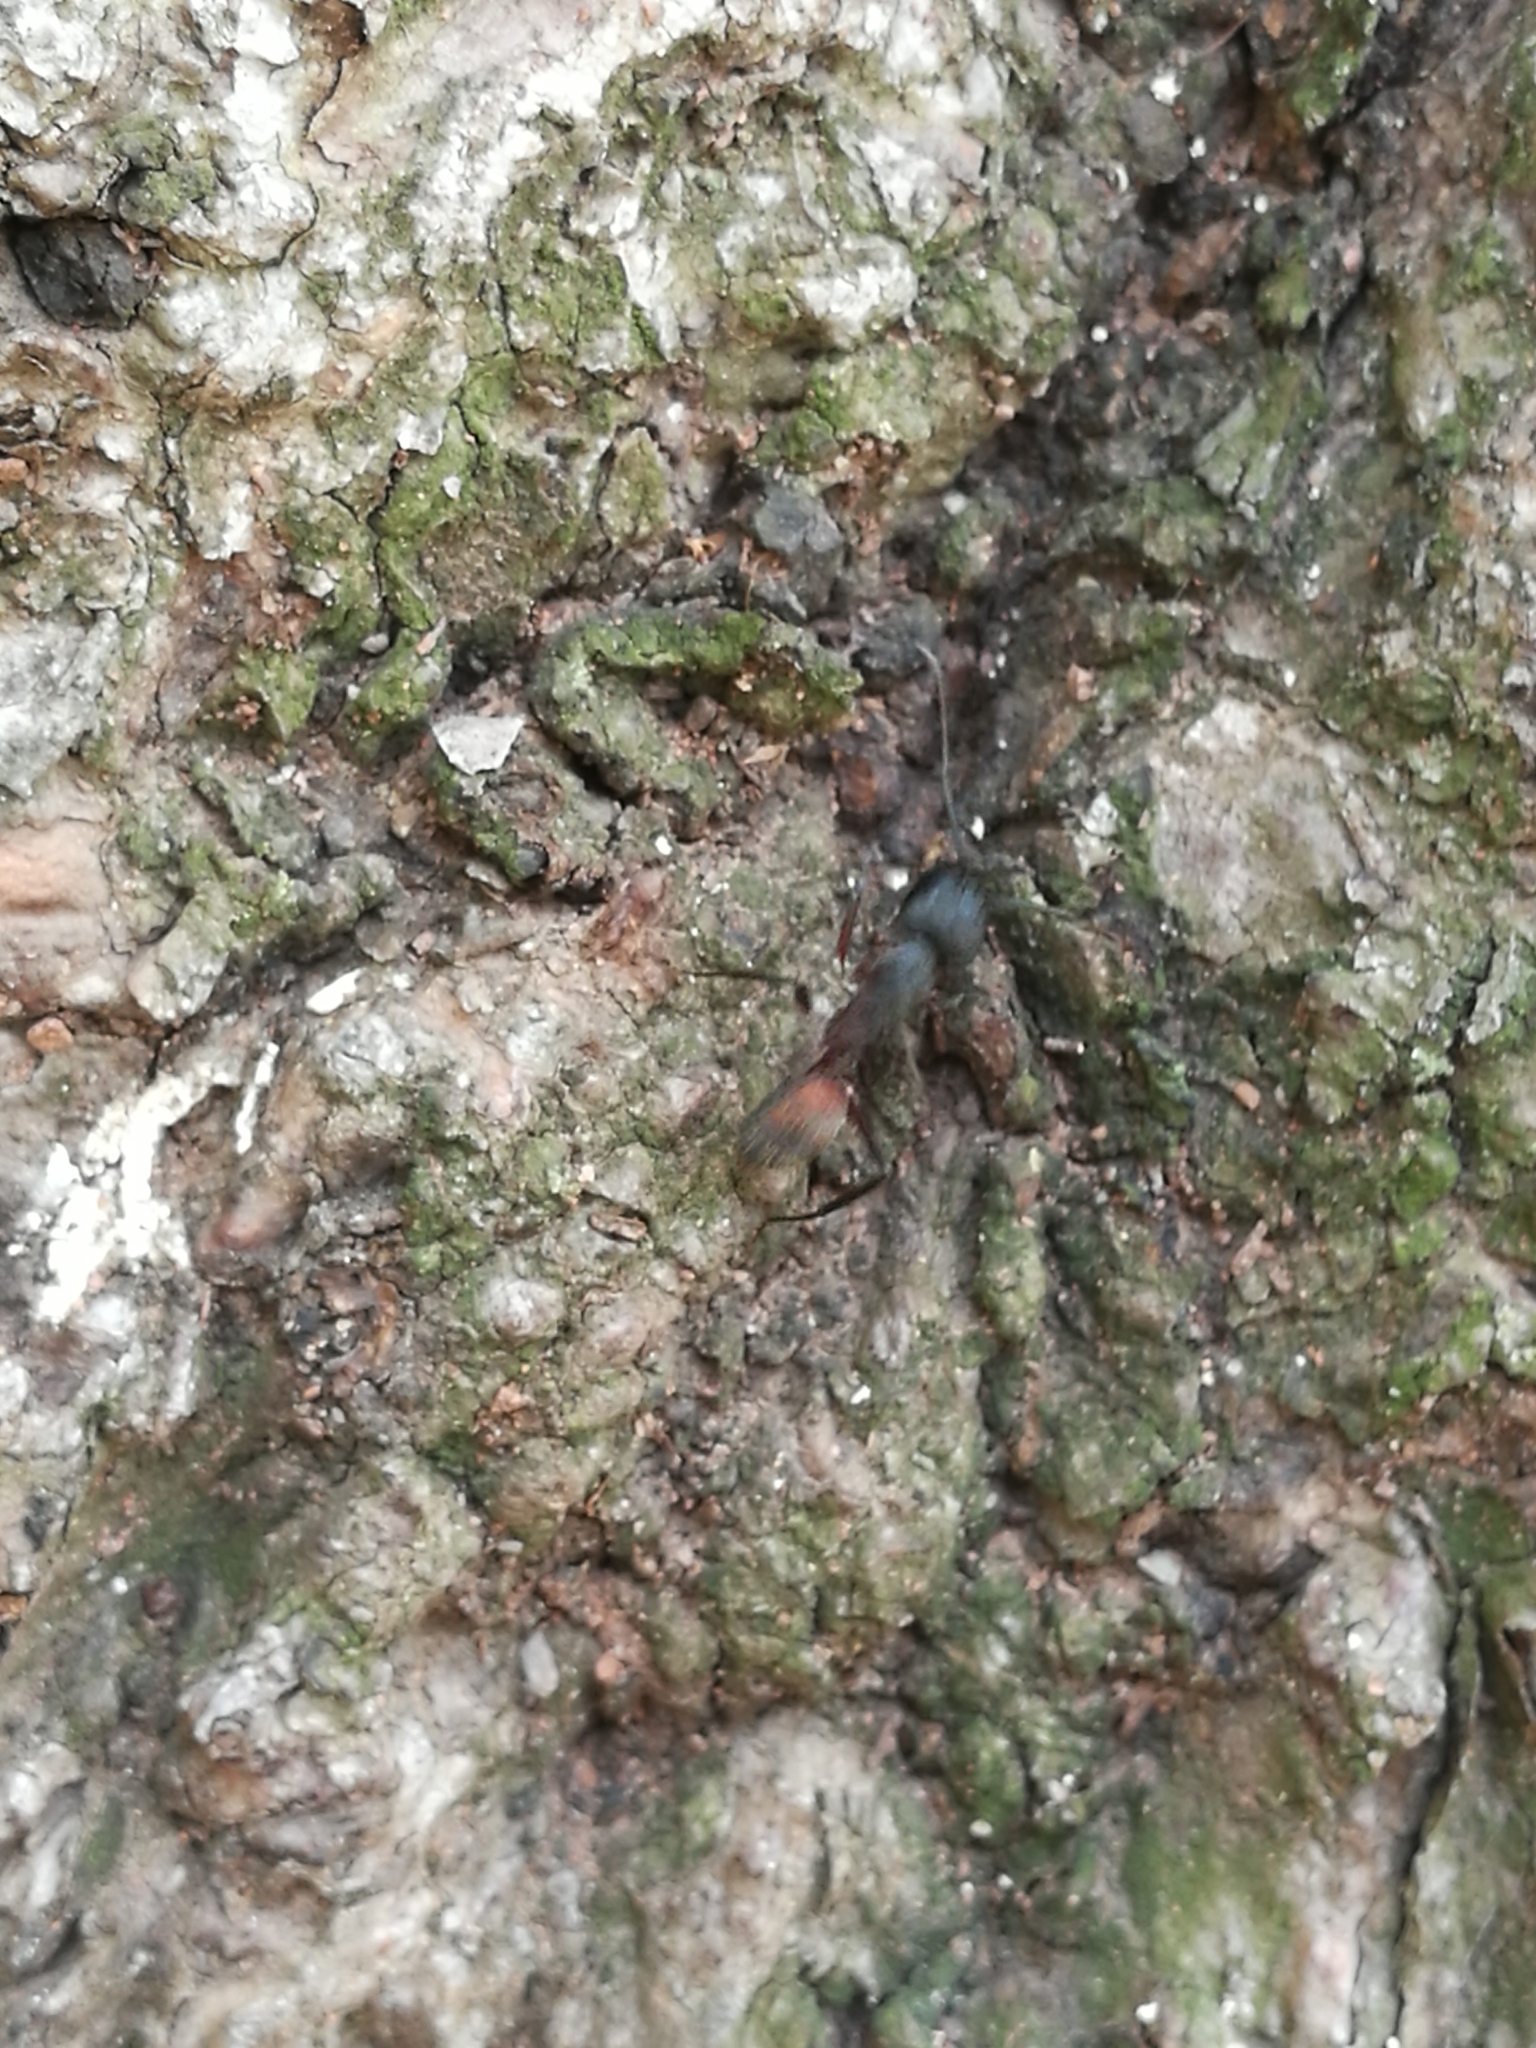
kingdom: Animalia
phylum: Arthropoda
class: Insecta
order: Hymenoptera
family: Formicidae
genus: Camponotus
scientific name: Camponotus cruentatus
